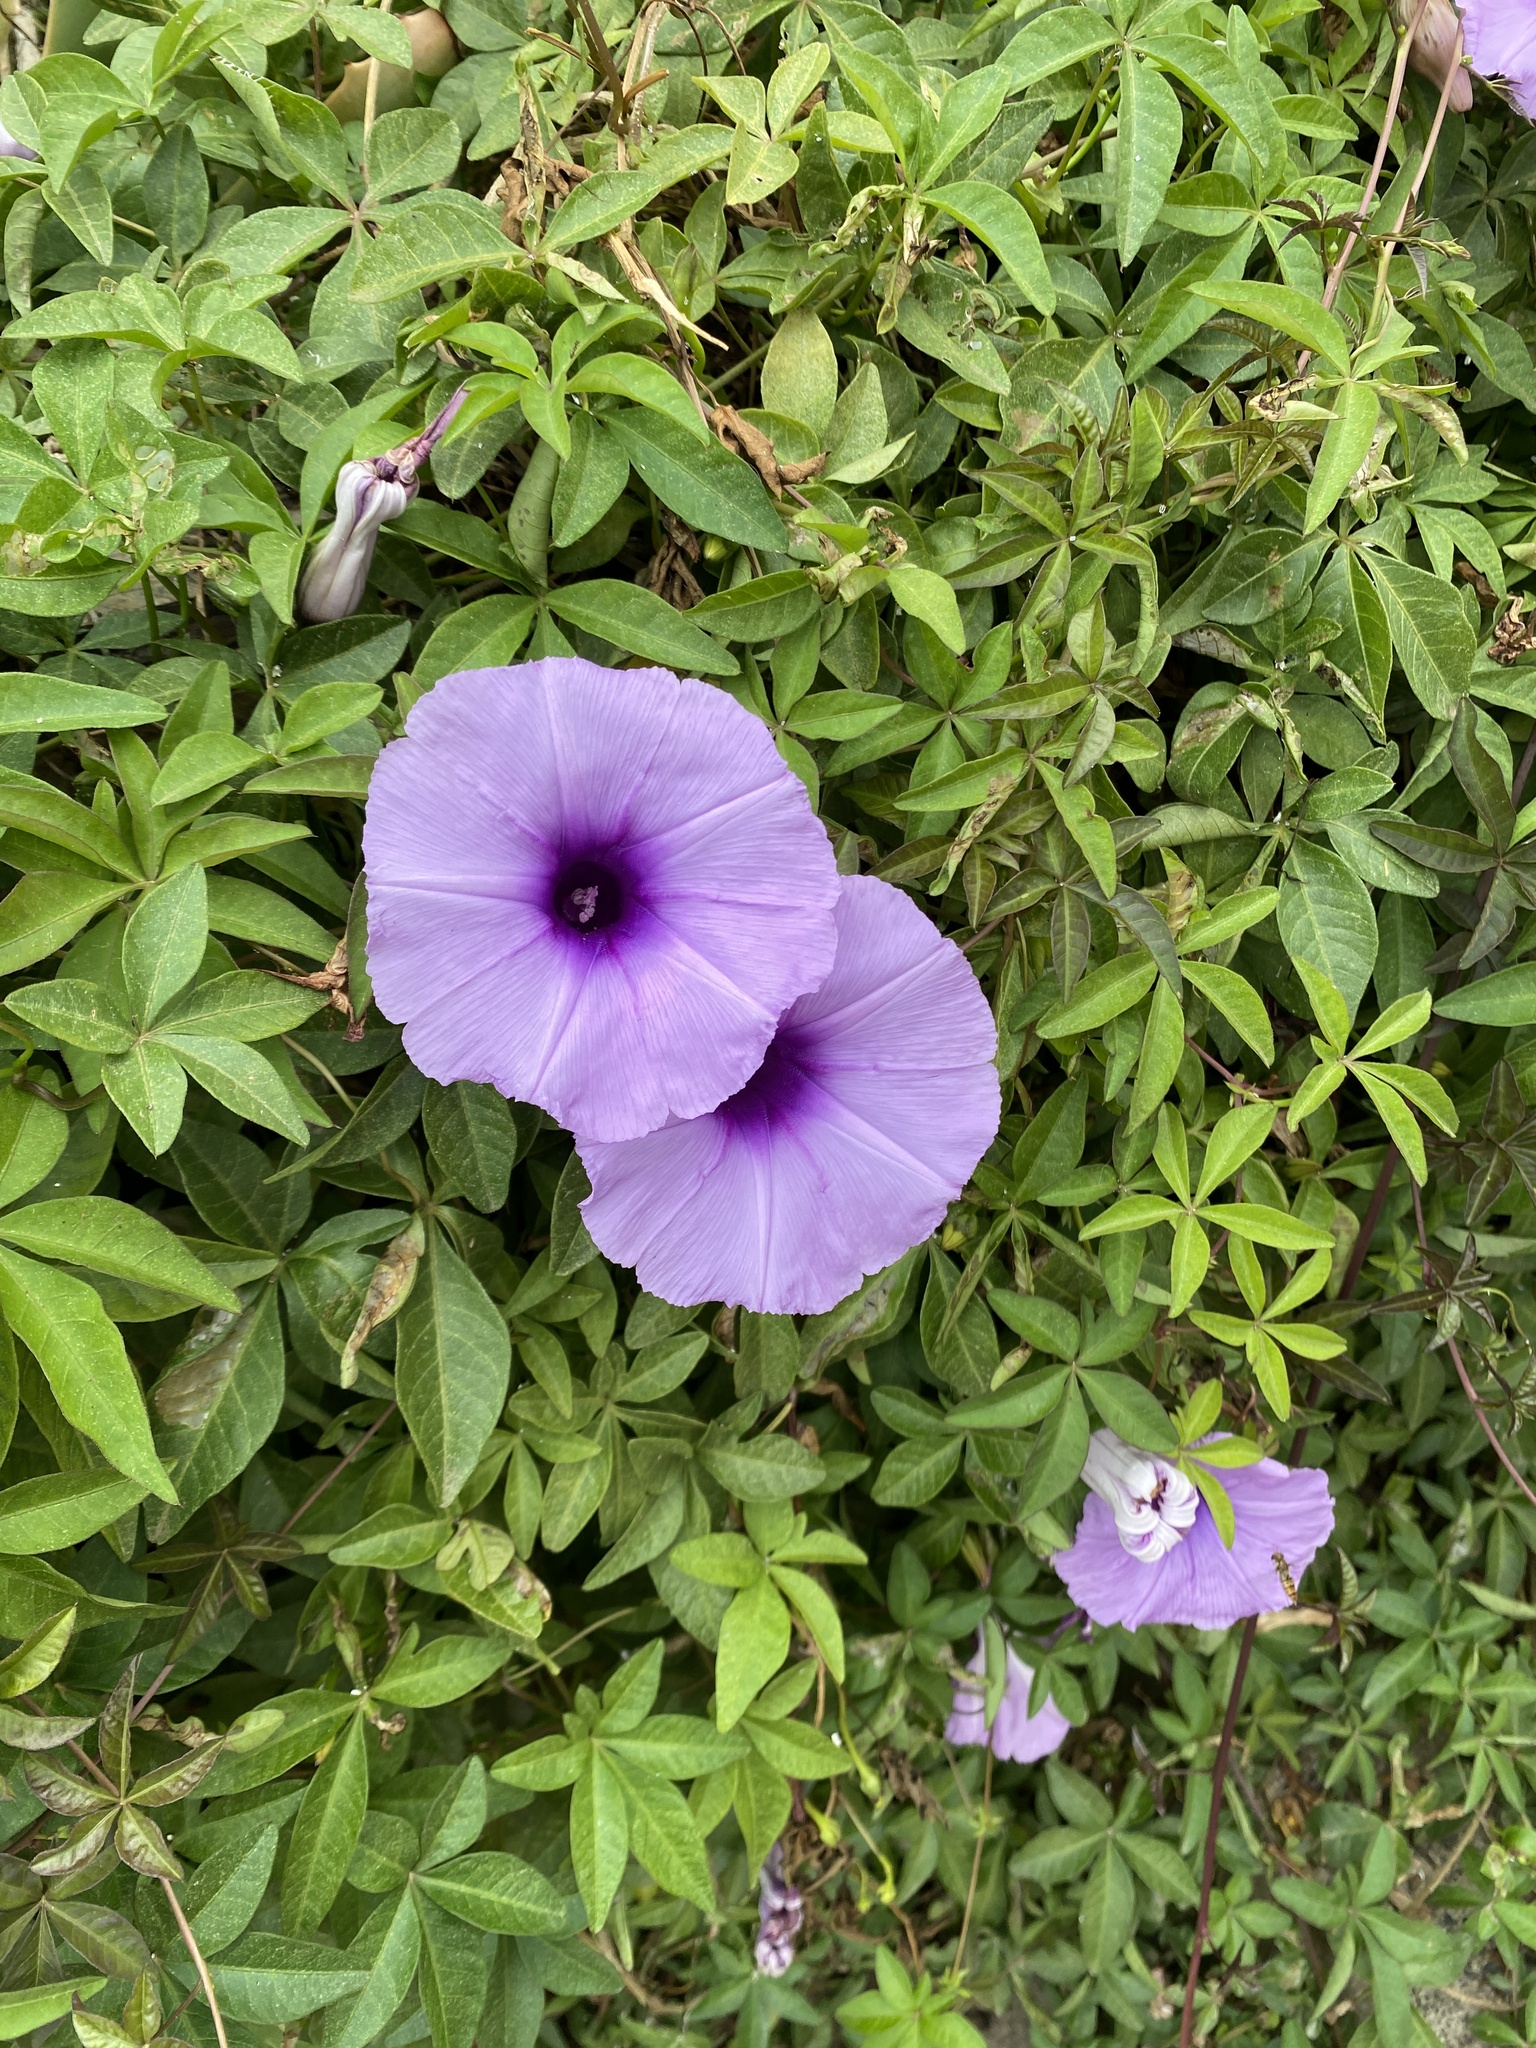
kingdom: Plantae
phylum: Tracheophyta
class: Magnoliopsida
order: Solanales
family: Convolvulaceae
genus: Ipomoea
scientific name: Ipomoea cairica
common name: Mile a minute vine
